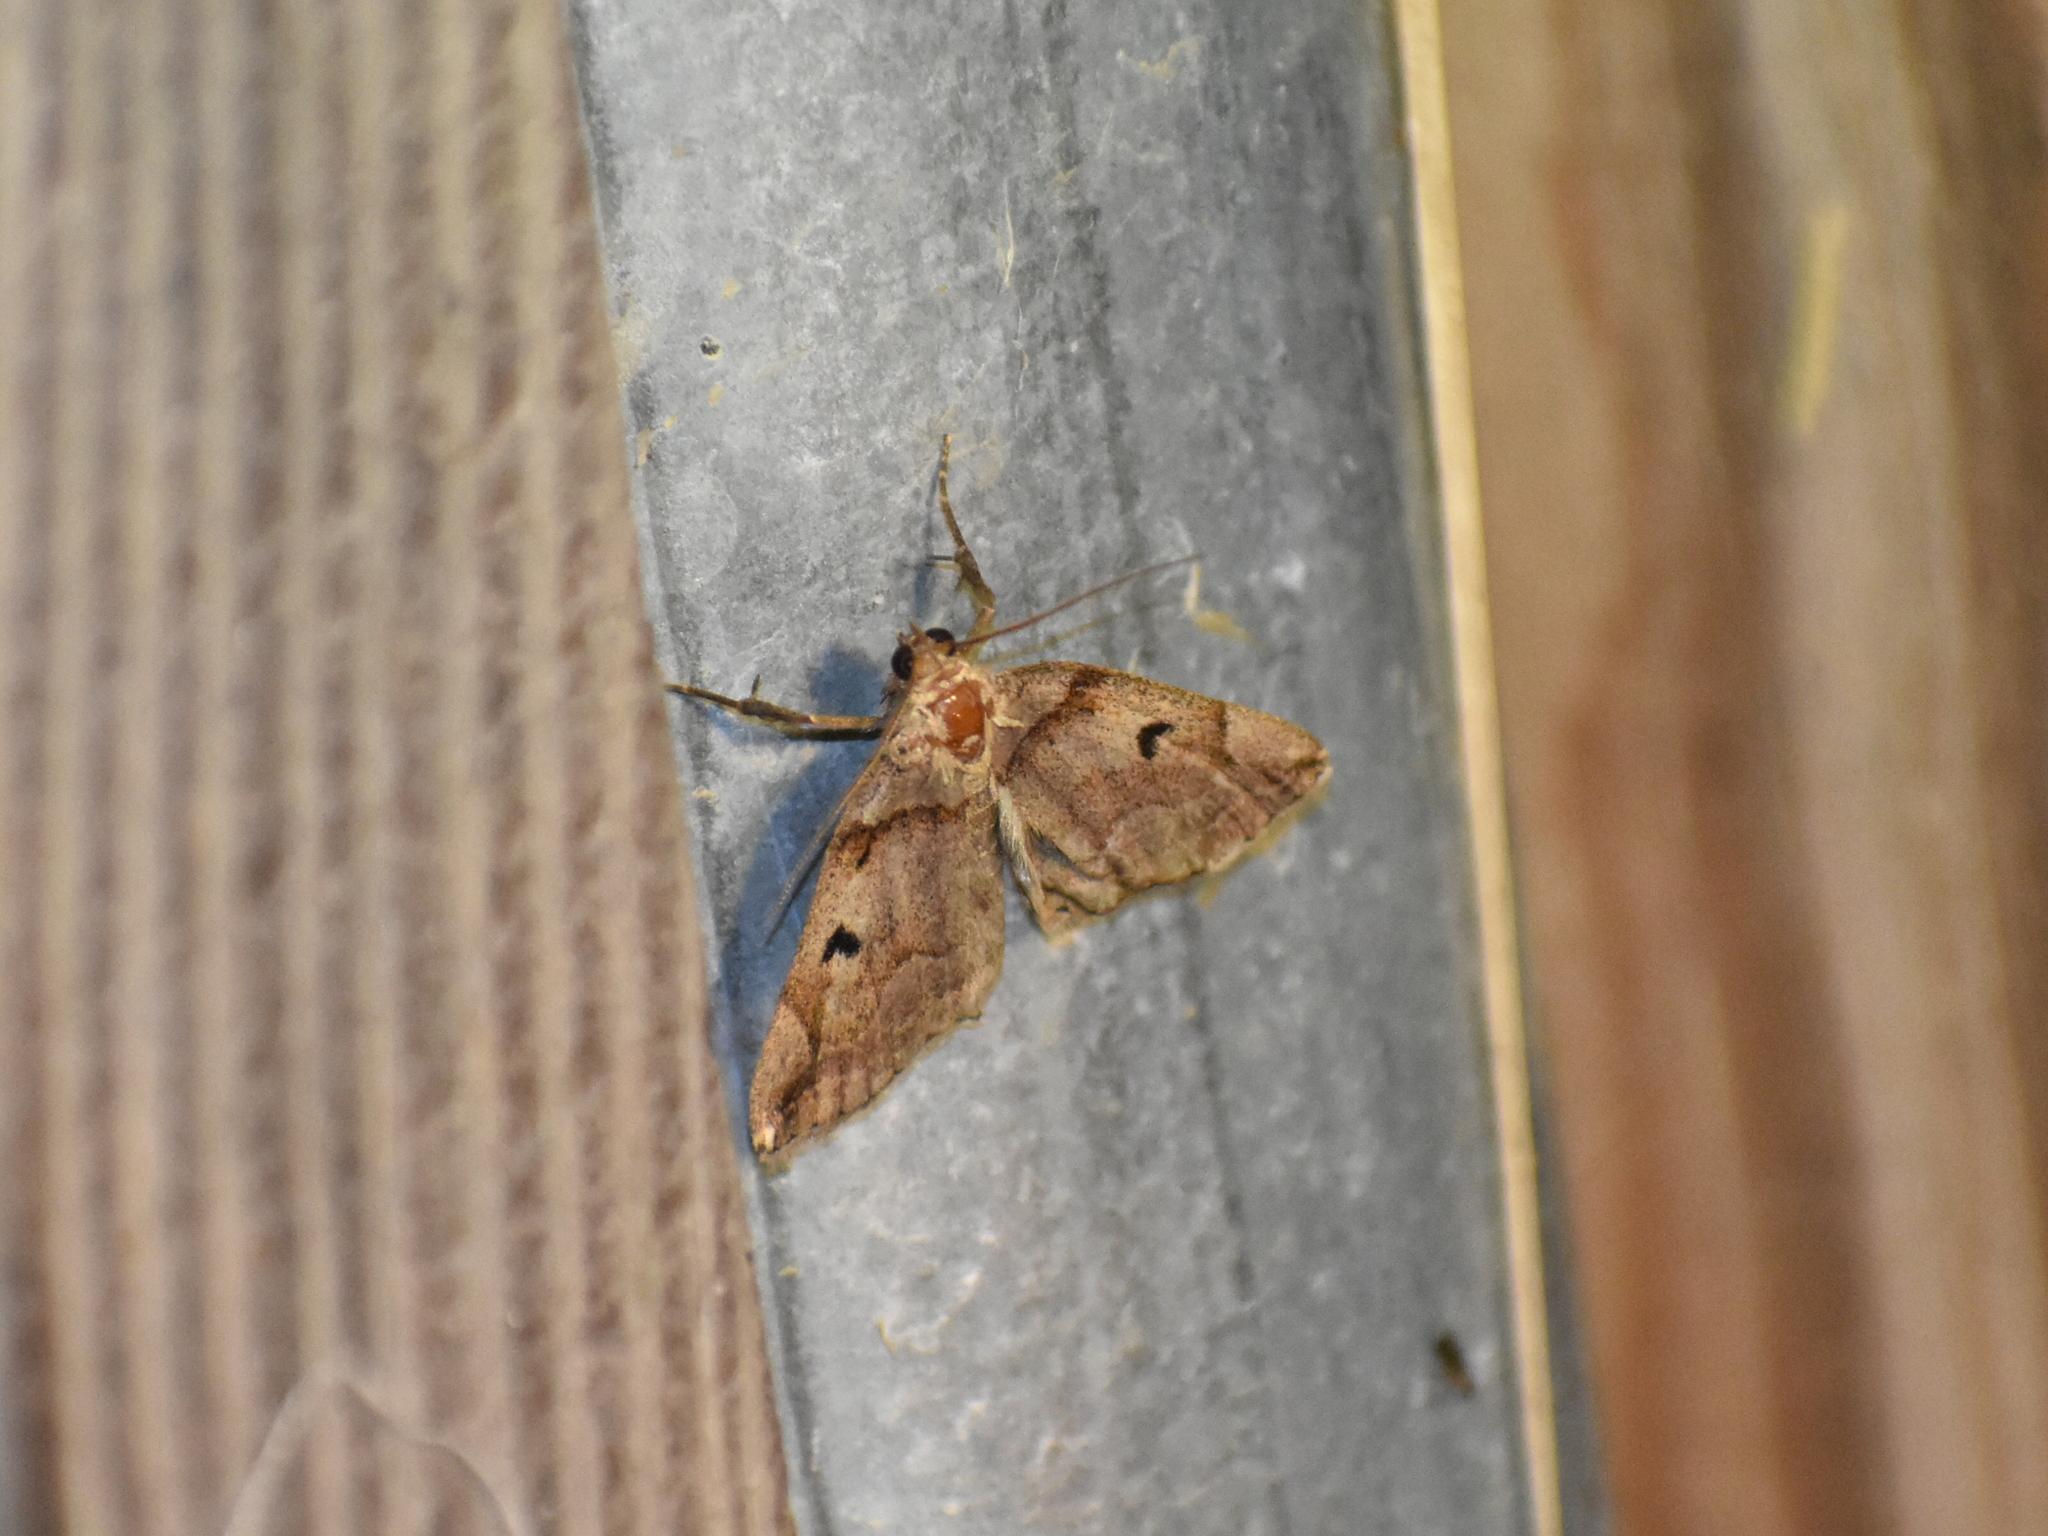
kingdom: Animalia
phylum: Arthropoda
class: Insecta
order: Lepidoptera
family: Erebidae
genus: Zanclognatha
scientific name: Zanclognatha laevigata
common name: Variable fan-foot
